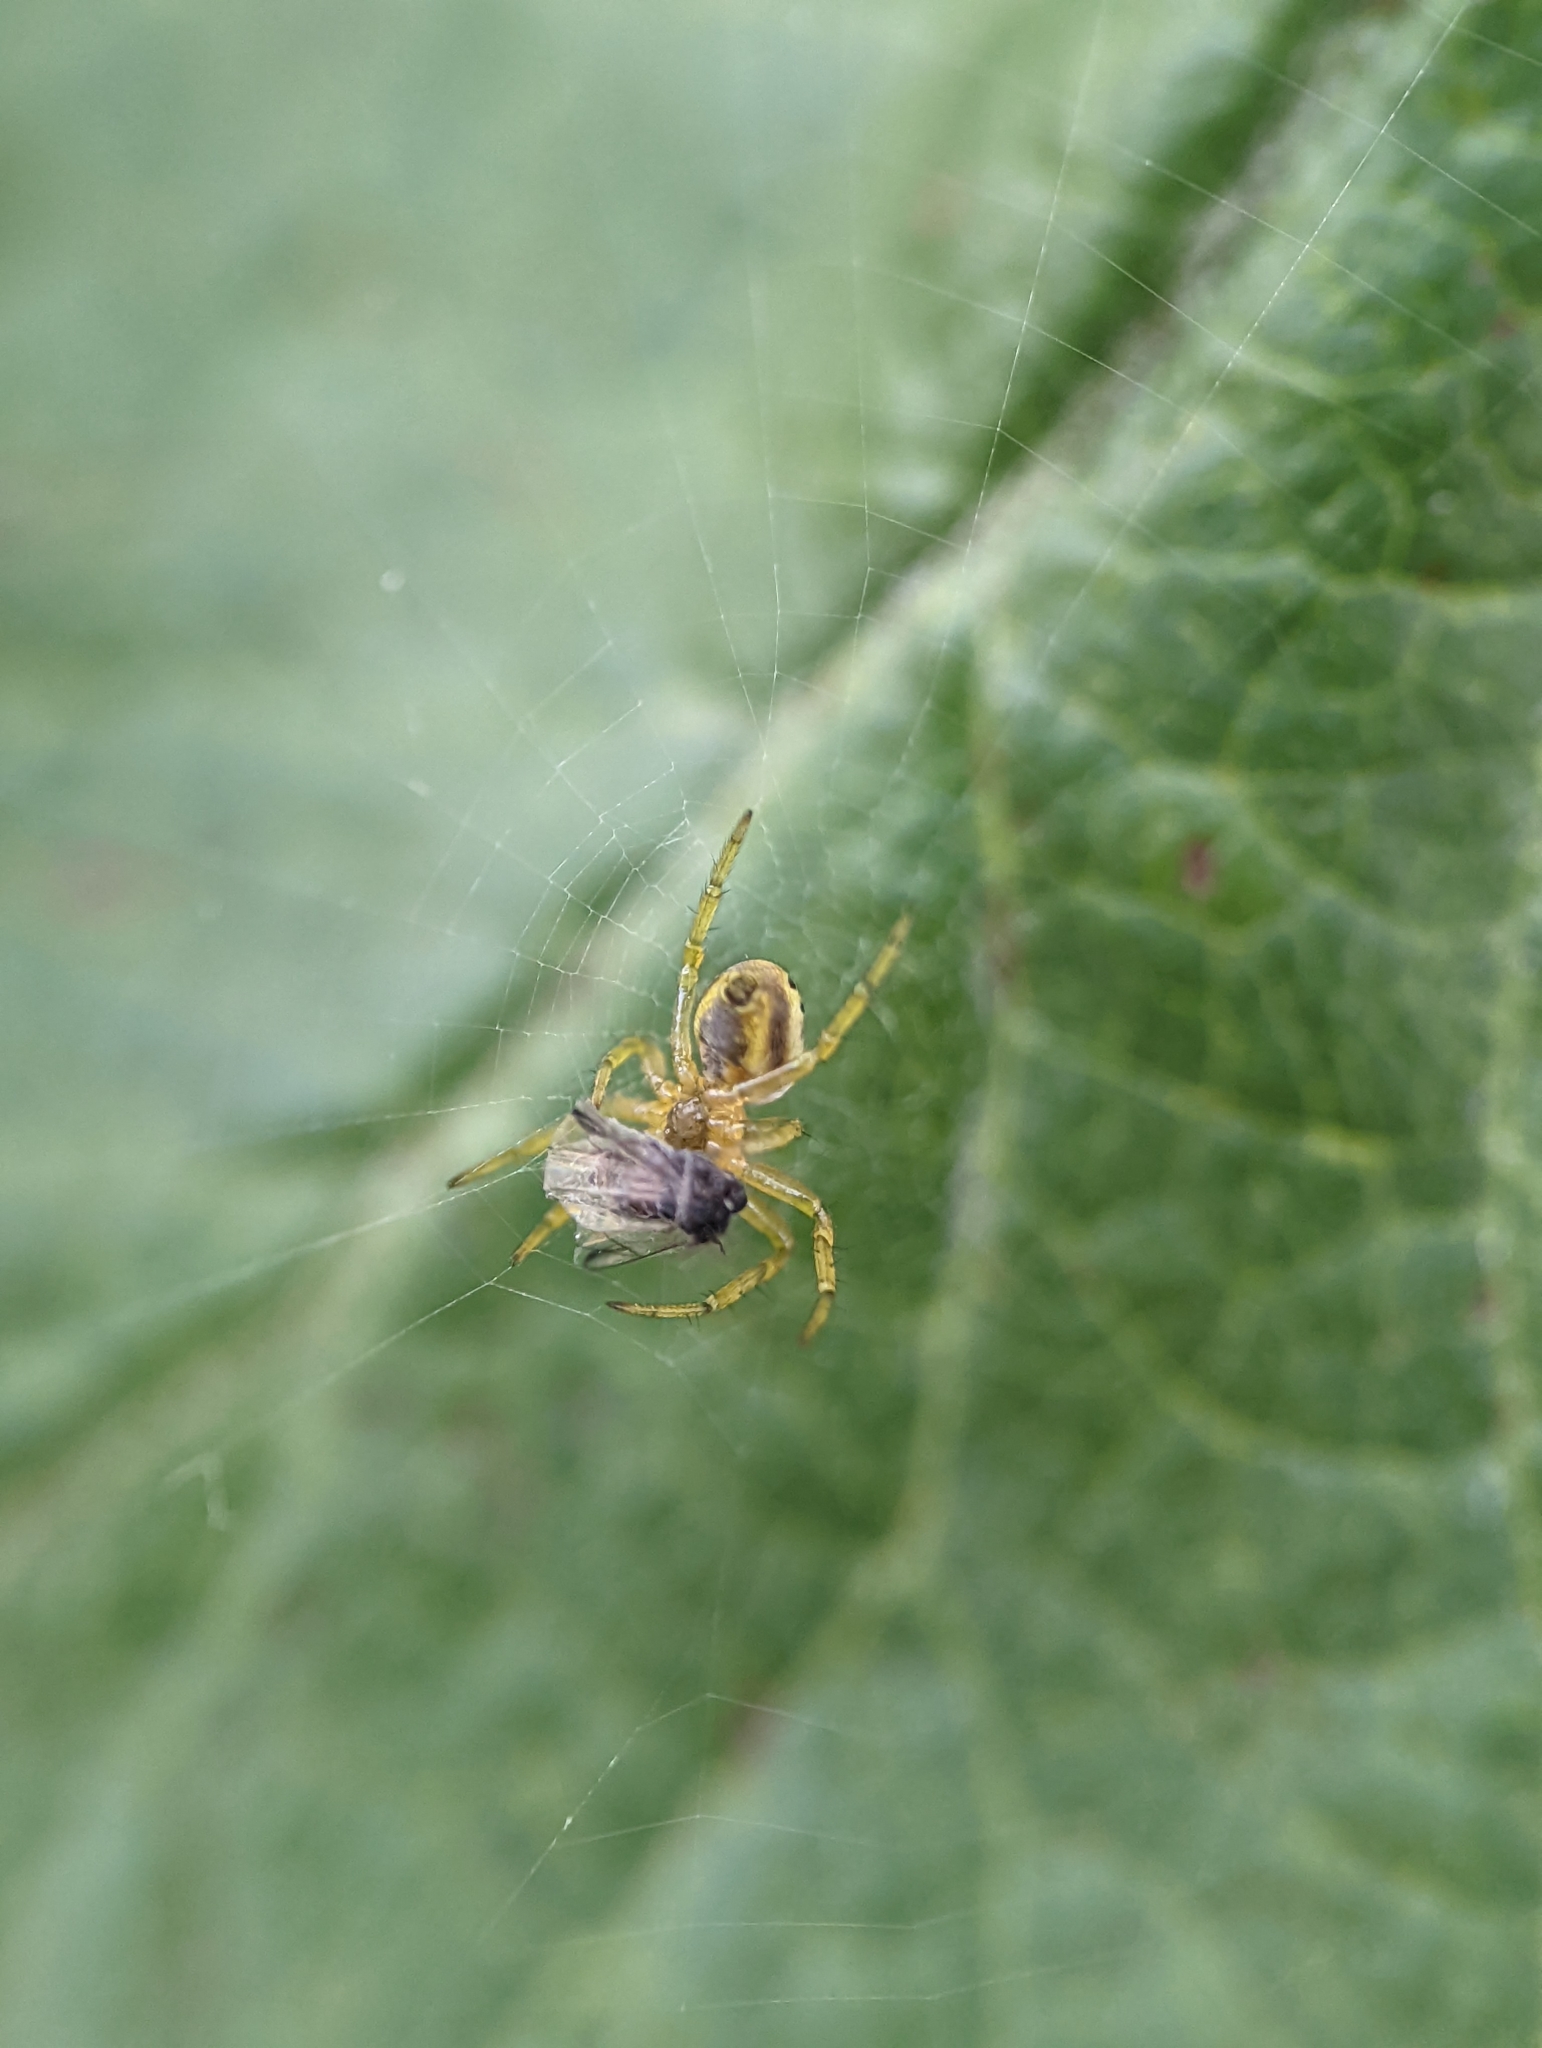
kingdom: Animalia
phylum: Arthropoda
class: Arachnida
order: Araneae
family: Araneidae
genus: Araniella
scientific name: Araniella displicata
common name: Sixspotted orb weaver
